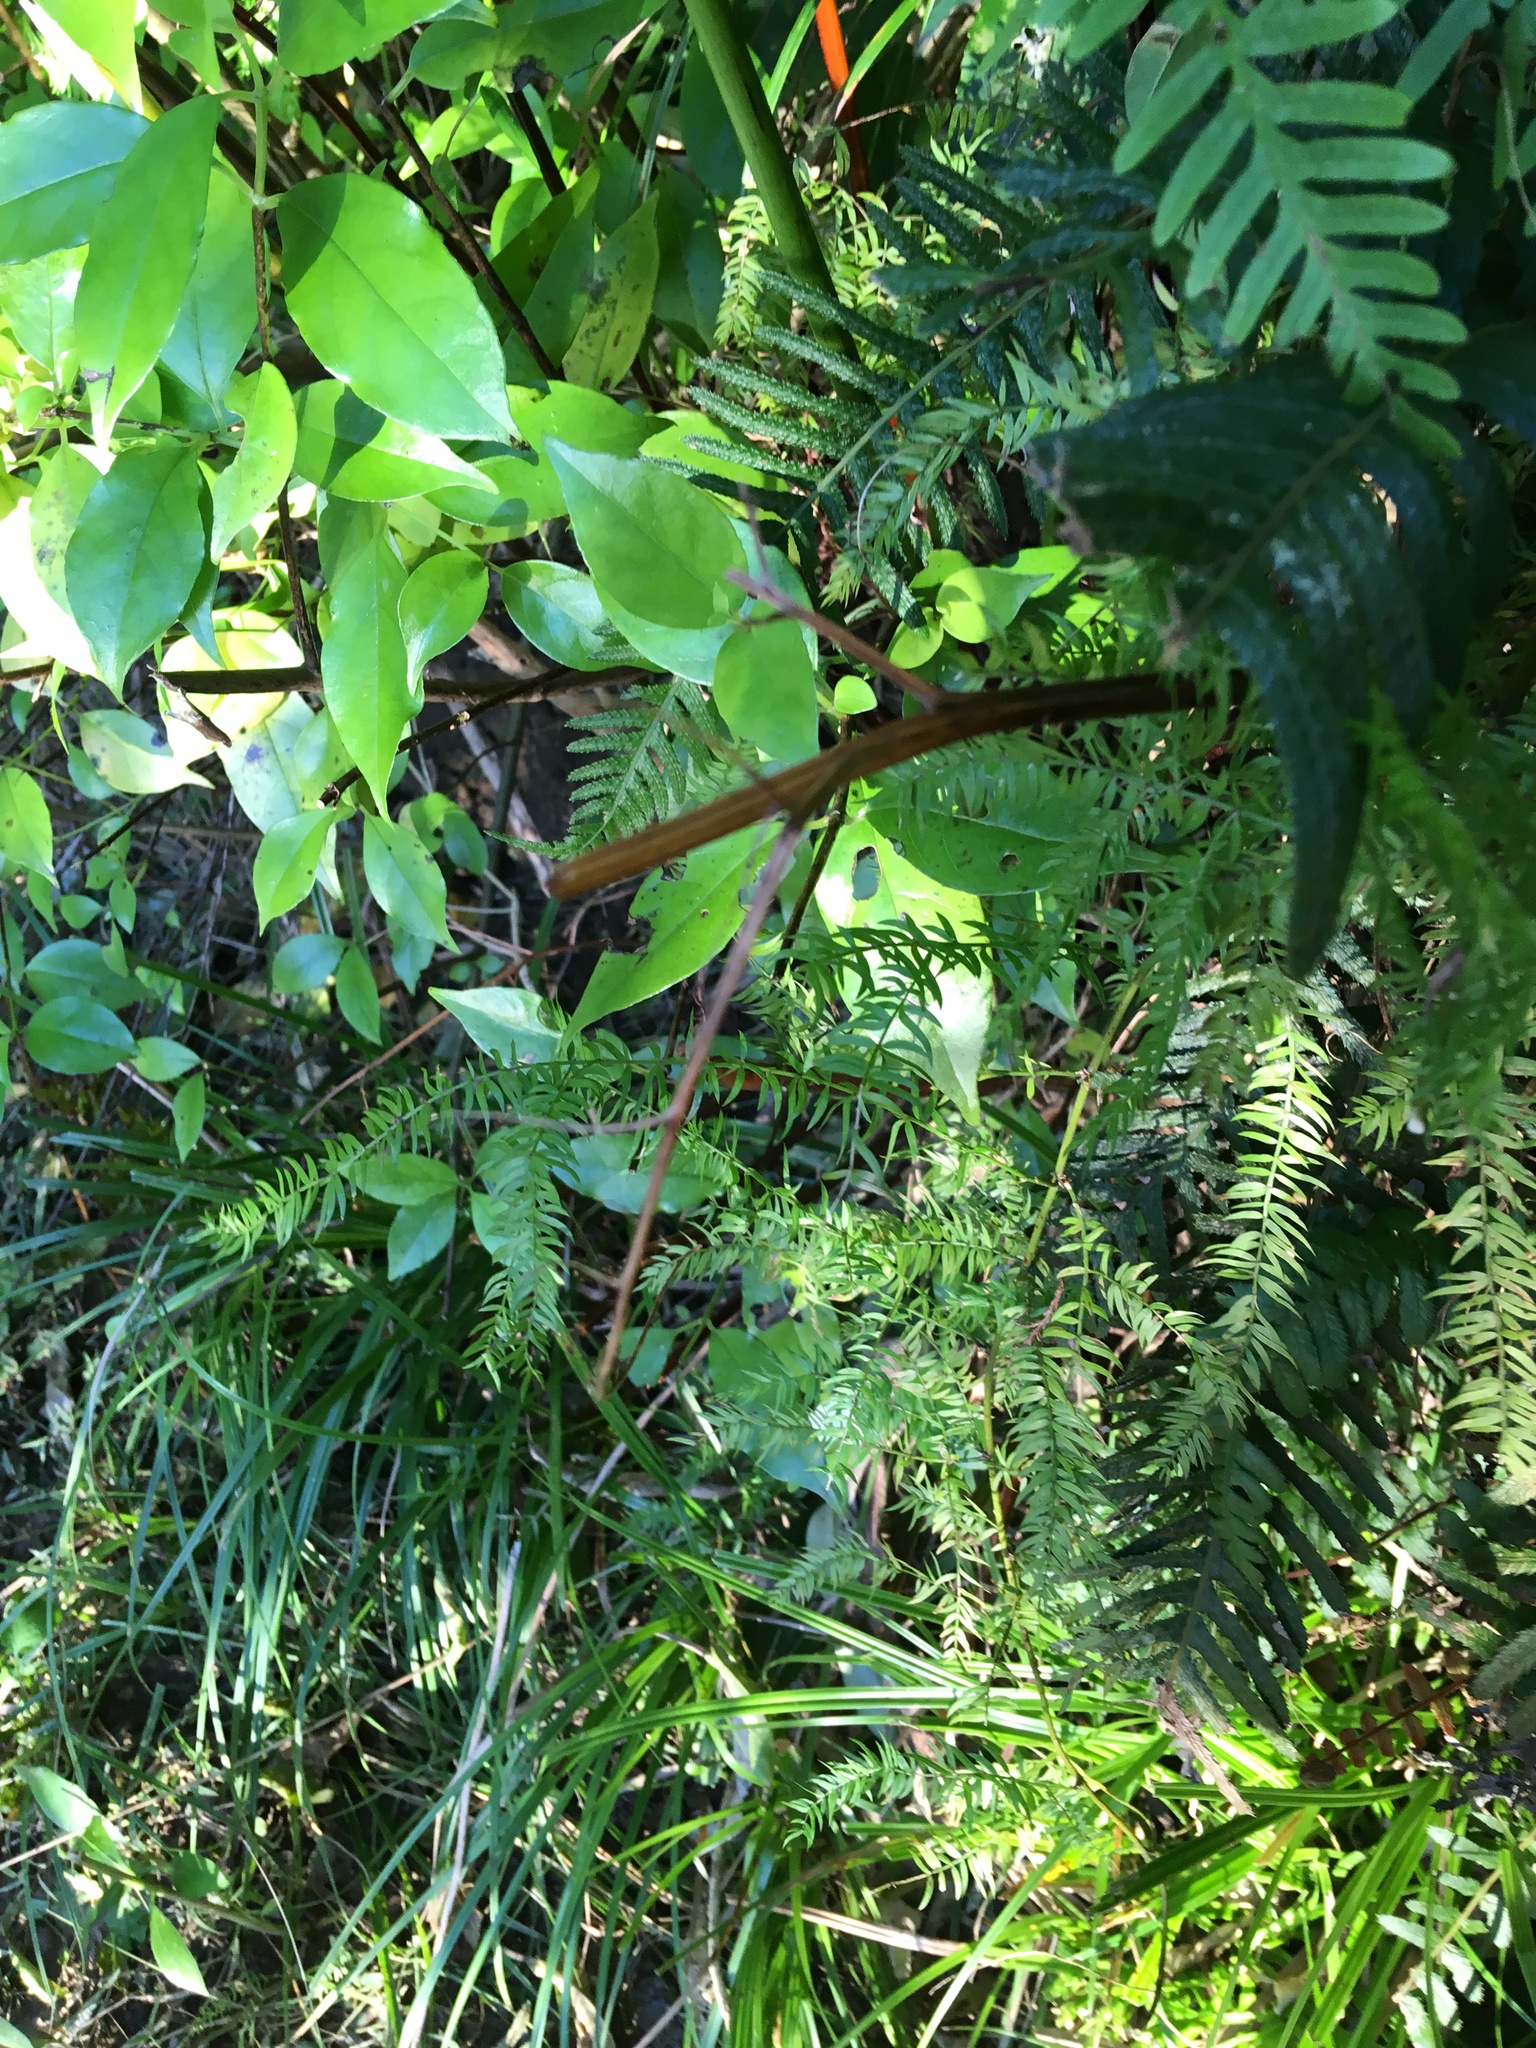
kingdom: Plantae
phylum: Tracheophyta
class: Liliopsida
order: Asparagales
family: Asparagaceae
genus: Asparagus
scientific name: Asparagus scandens
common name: Asparagus-fern
